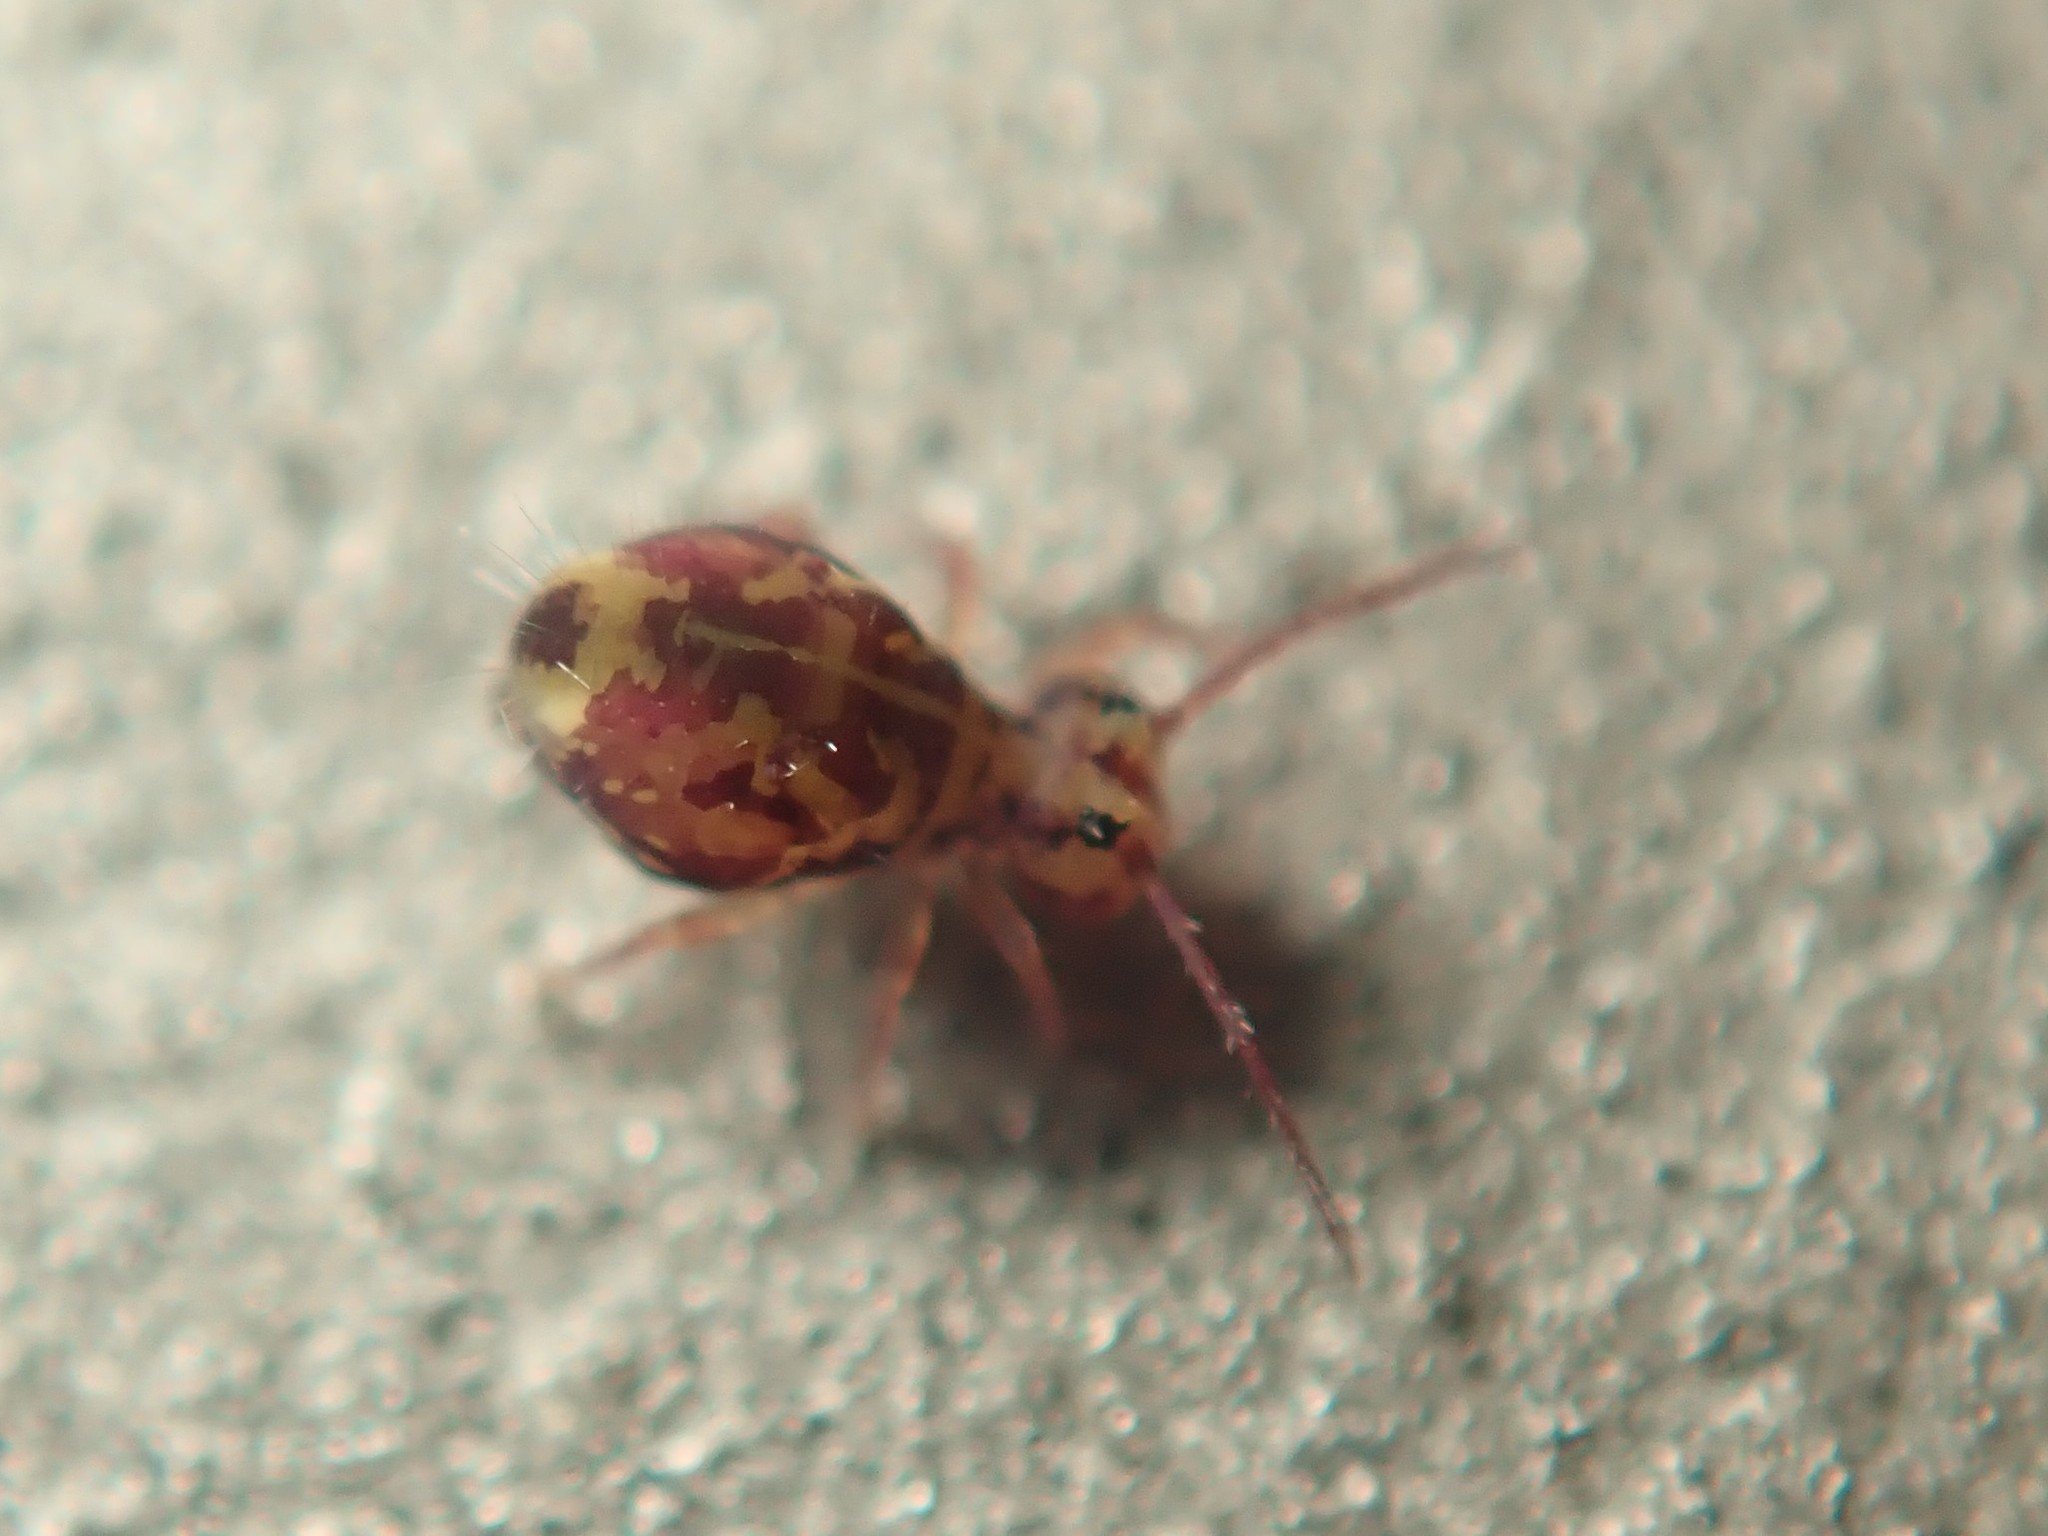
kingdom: Animalia
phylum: Arthropoda
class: Collembola
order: Symphypleona
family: Dicyrtomidae
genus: Dicyrtomina
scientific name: Dicyrtomina ornata
